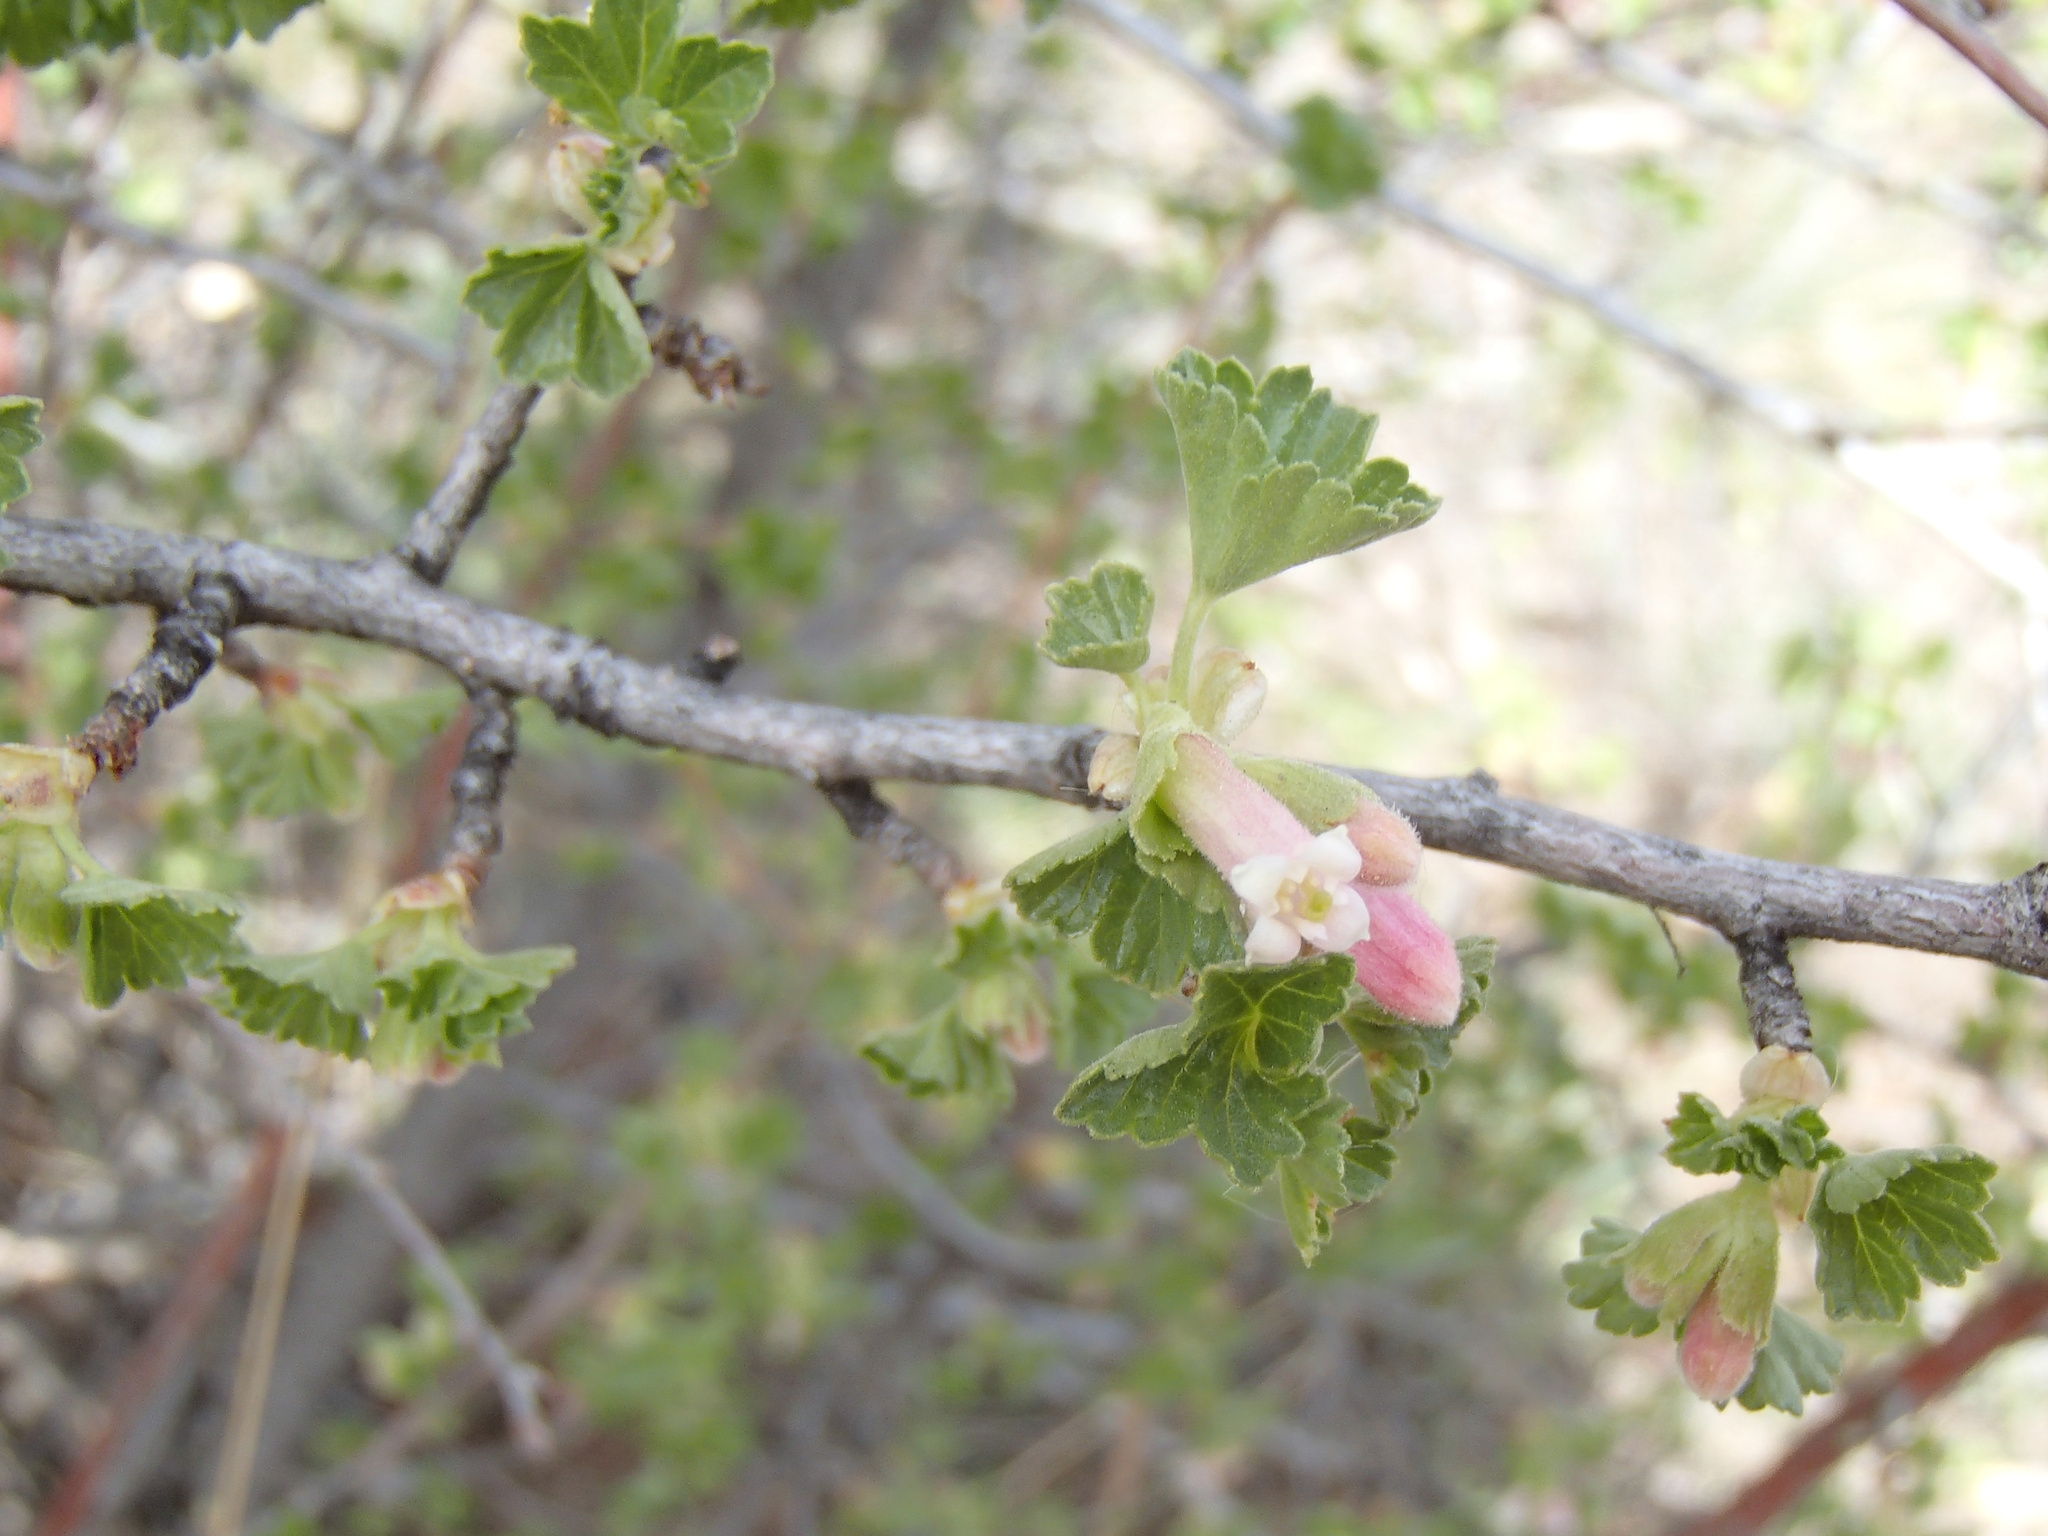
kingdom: Plantae
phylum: Tracheophyta
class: Magnoliopsida
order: Saxifragales
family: Grossulariaceae
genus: Ribes
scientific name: Ribes cereum
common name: Wax currant
